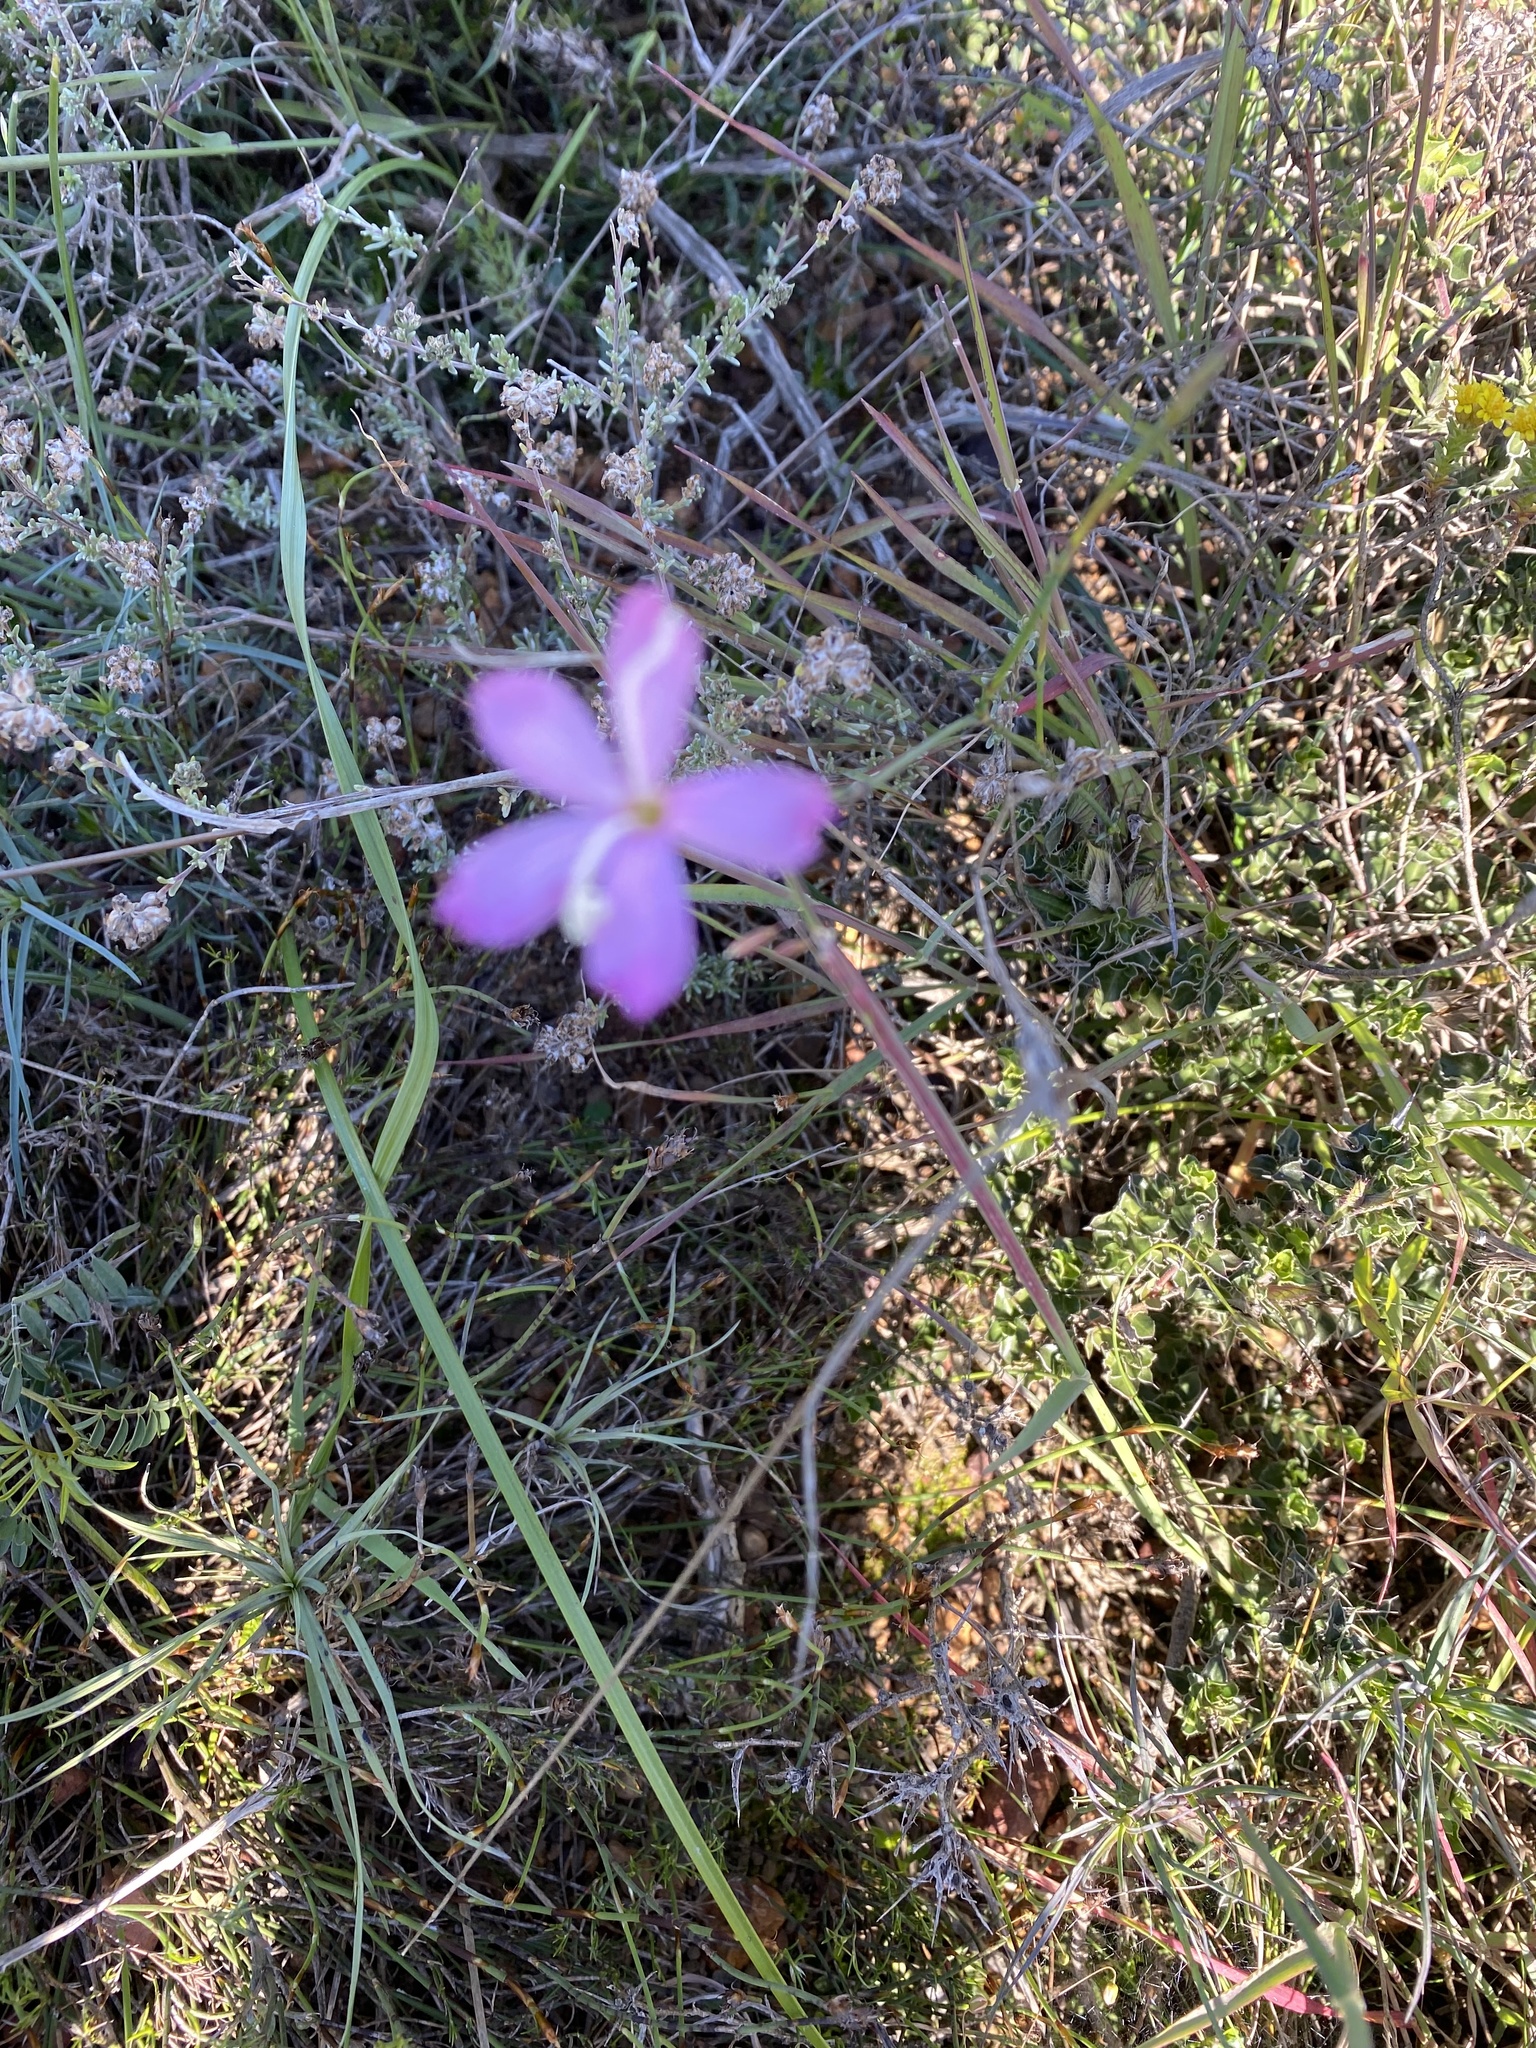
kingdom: Plantae
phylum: Tracheophyta
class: Magnoliopsida
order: Caryophyllales
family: Caryophyllaceae
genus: Dianthus
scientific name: Dianthus albens
